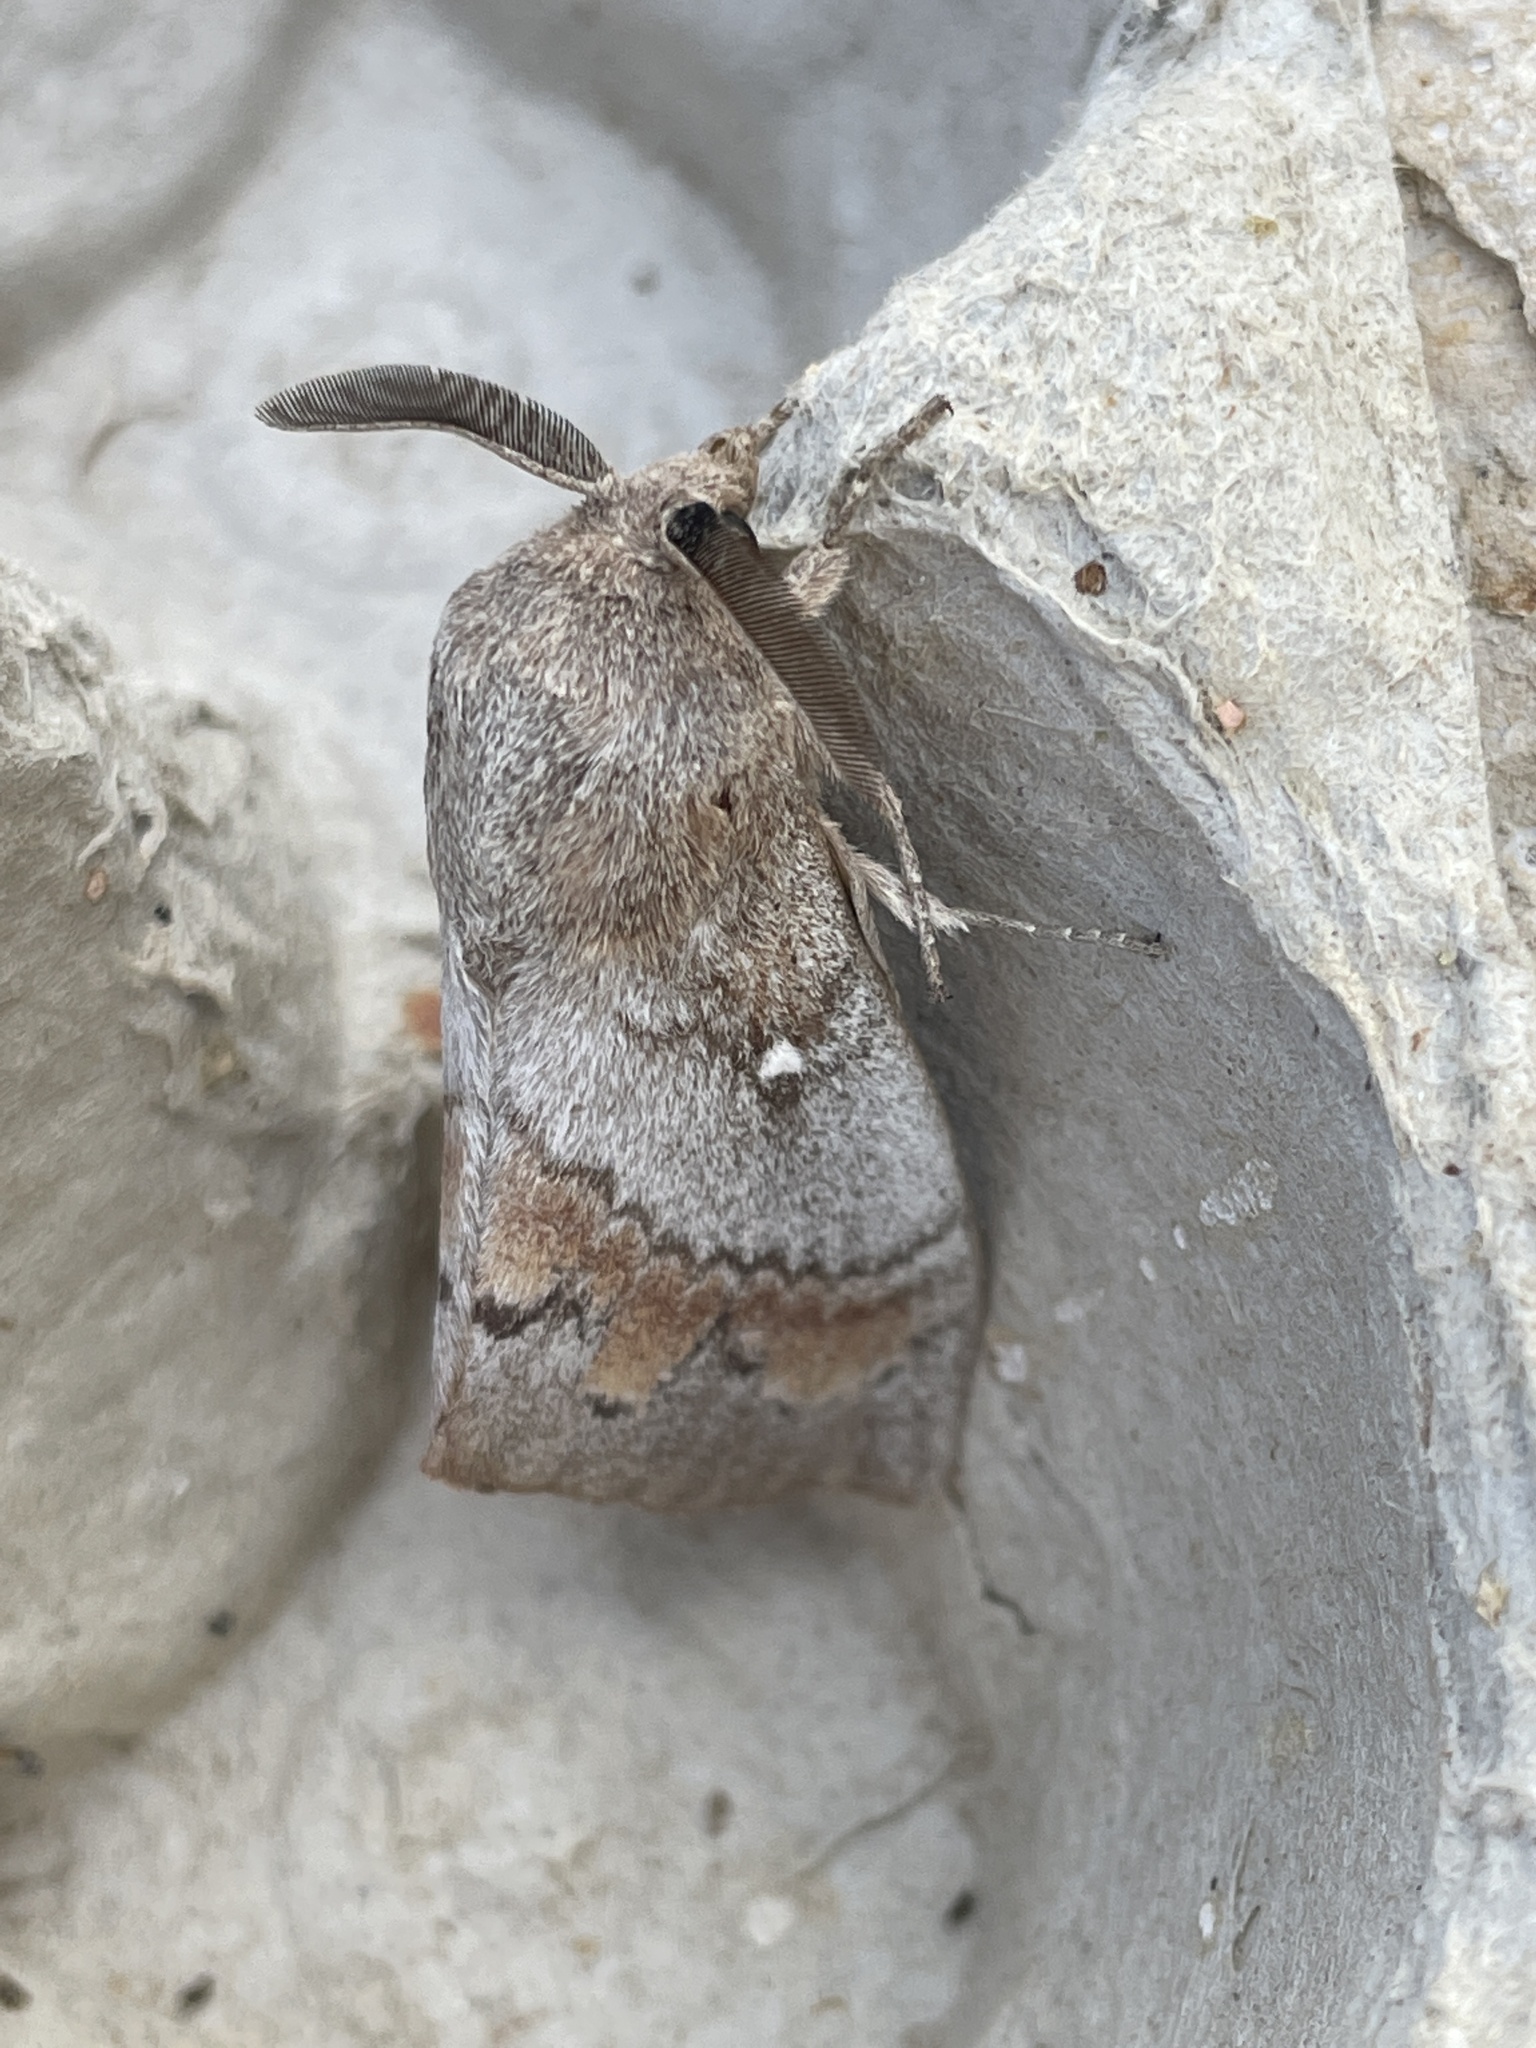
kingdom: Animalia
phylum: Arthropoda
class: Insecta
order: Lepidoptera
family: Lasiocampidae
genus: Dendrolimus
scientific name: Dendrolimus pini
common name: Pine-tree lappet
